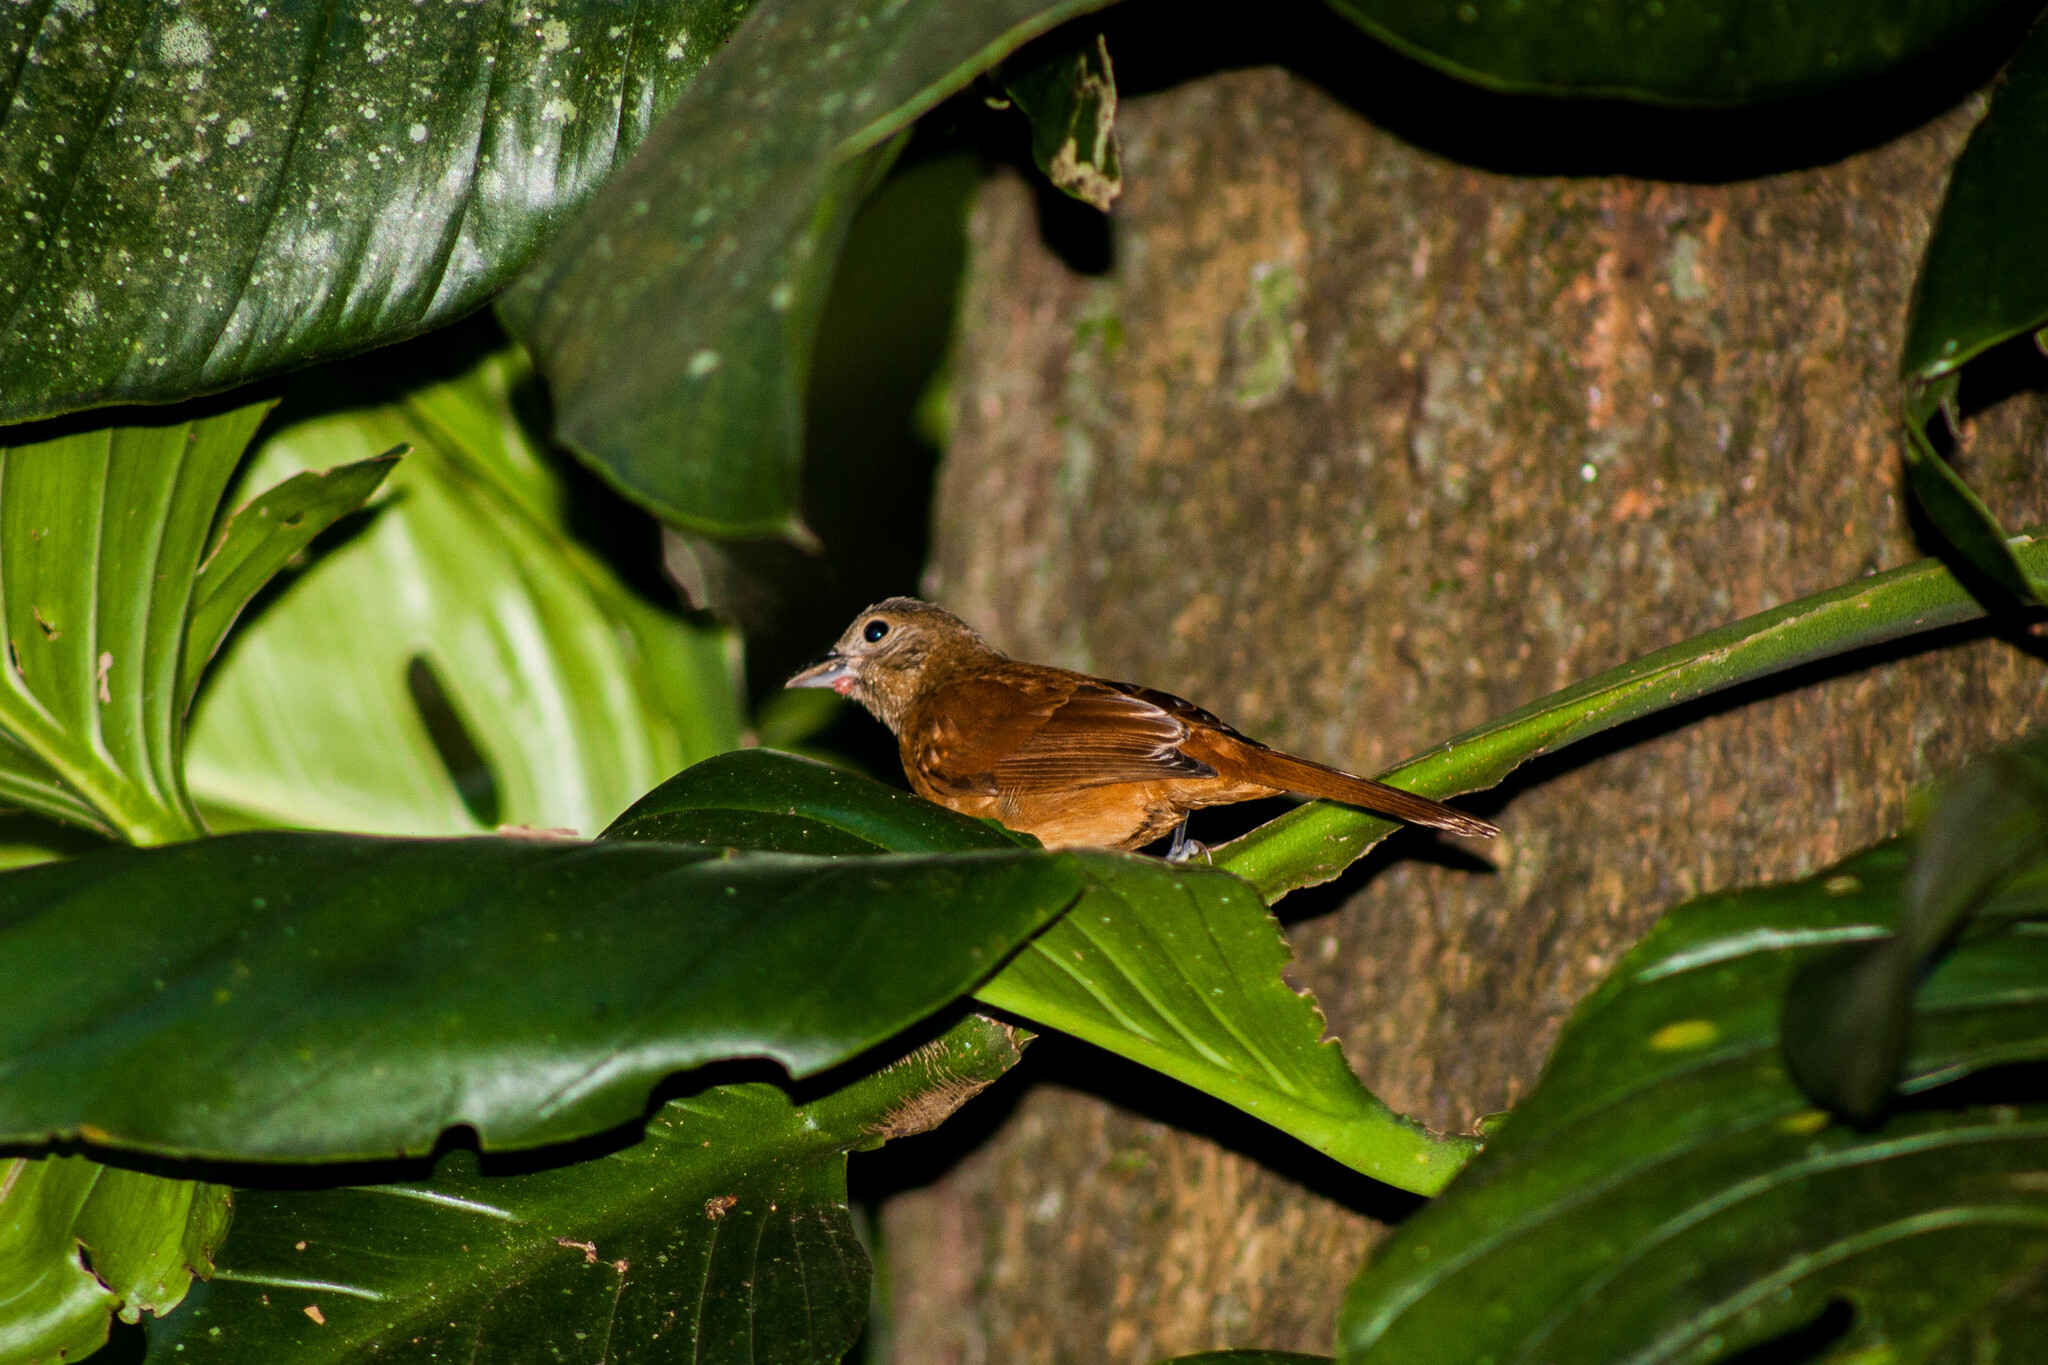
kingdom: Animalia
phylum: Chordata
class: Aves
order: Passeriformes
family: Cardinalidae
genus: Habia
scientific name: Habia rubica
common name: Red-crowned ant-tanager
